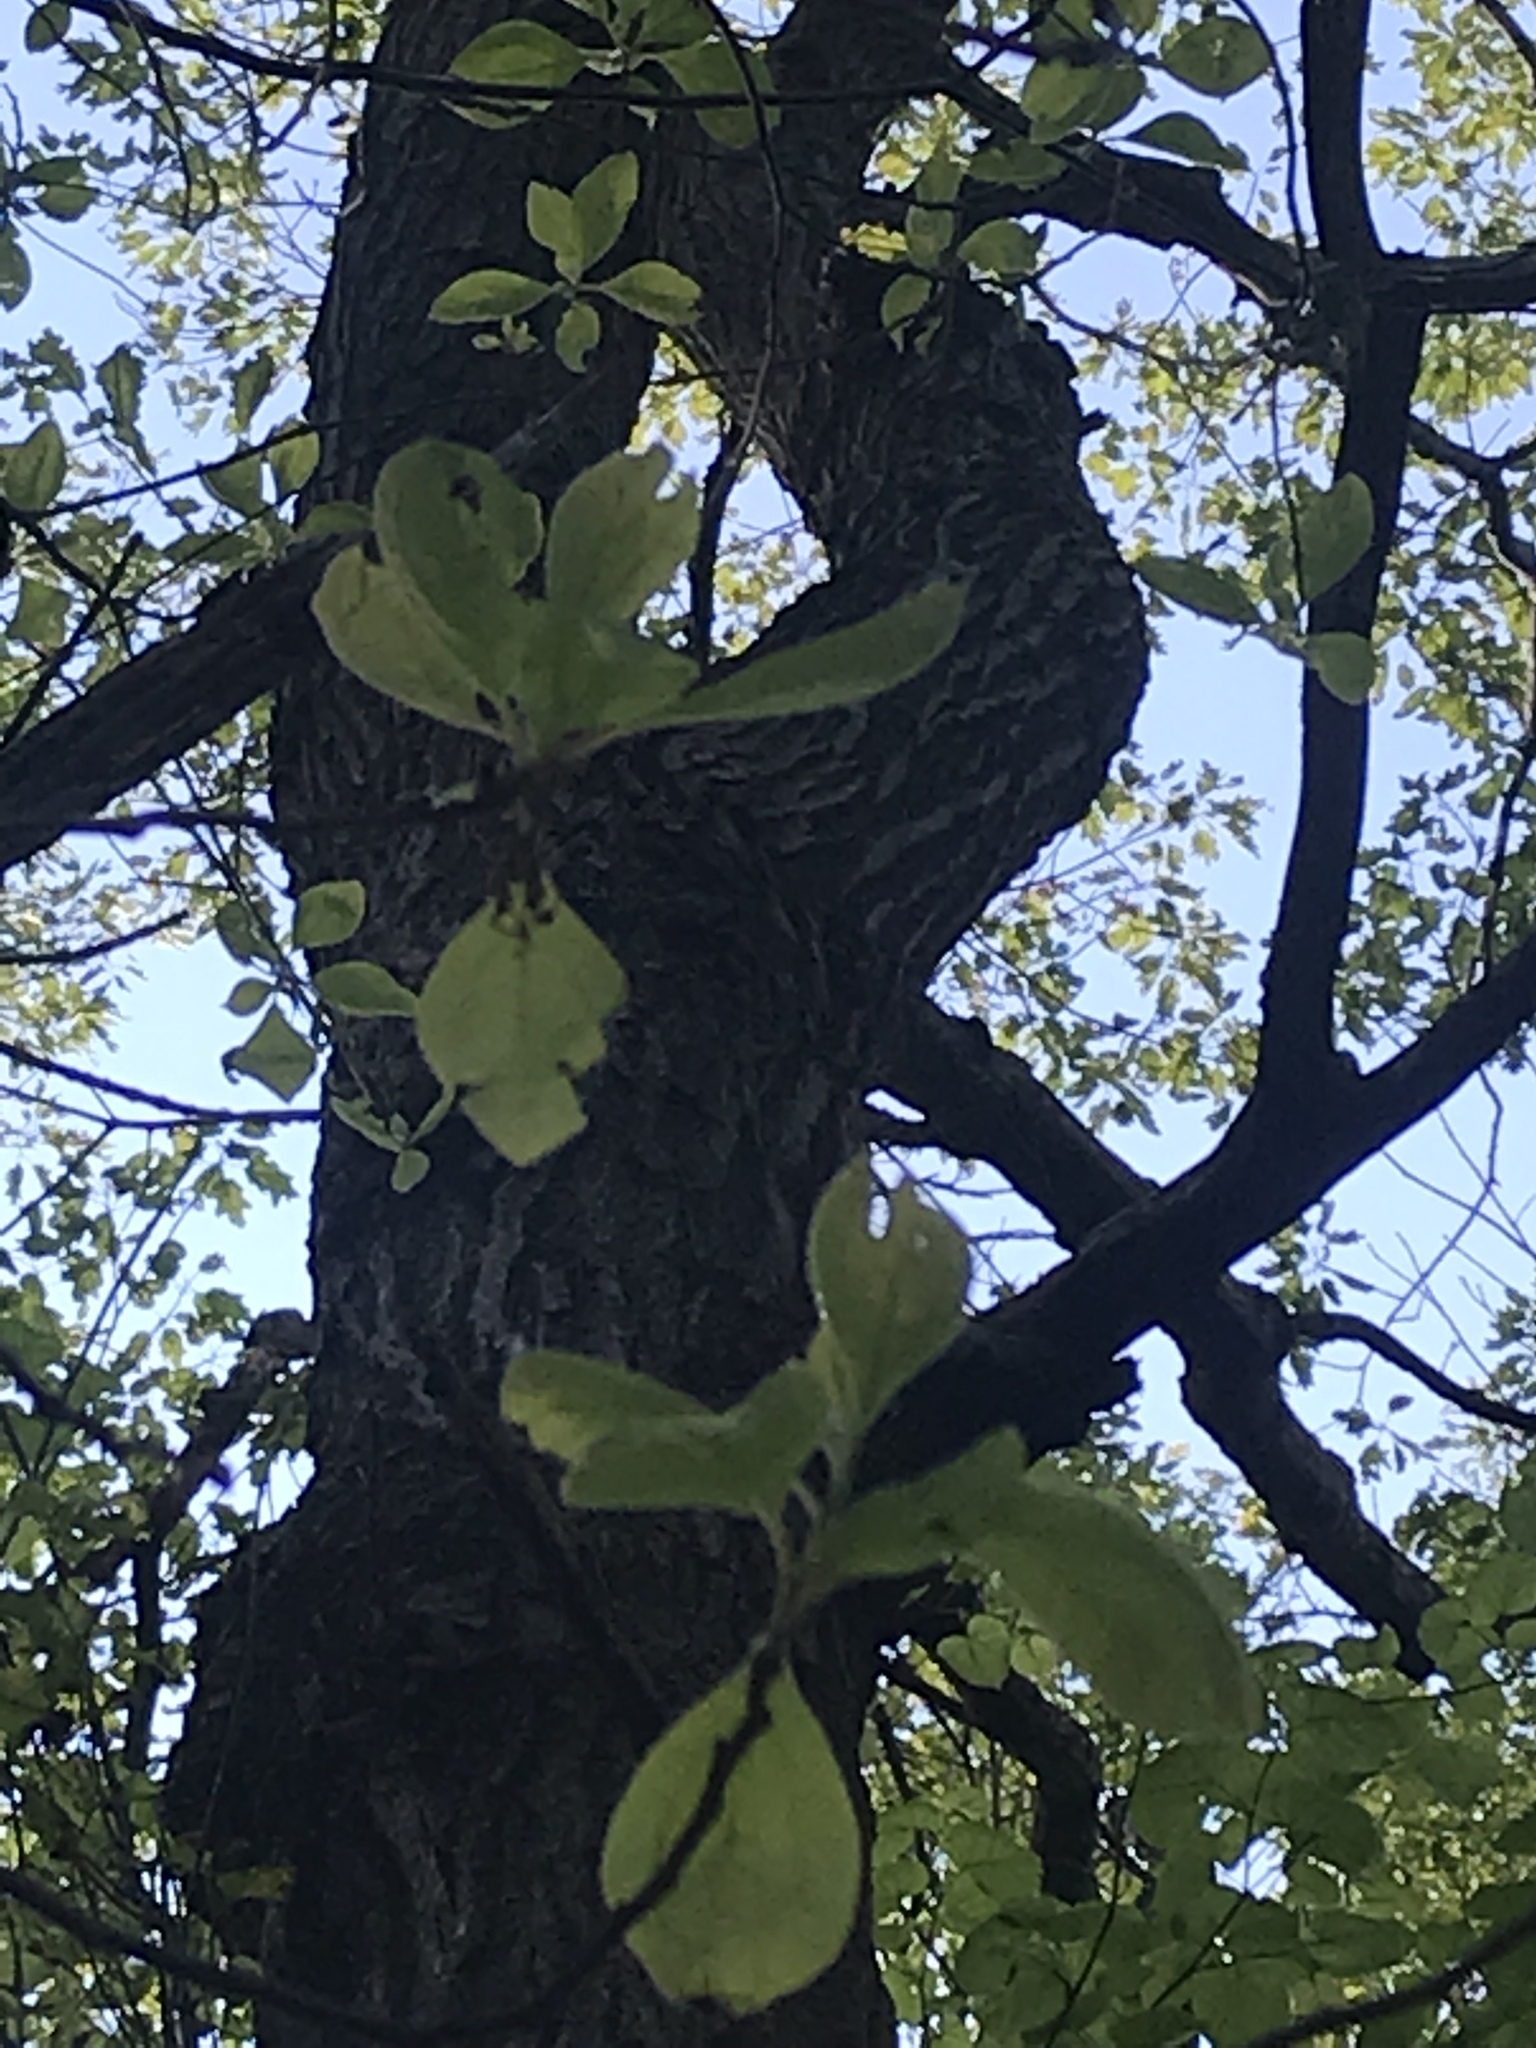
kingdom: Plantae
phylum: Tracheophyta
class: Magnoliopsida
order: Laurales
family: Lauraceae
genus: Sassafras
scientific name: Sassafras albidum
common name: Sassafras
